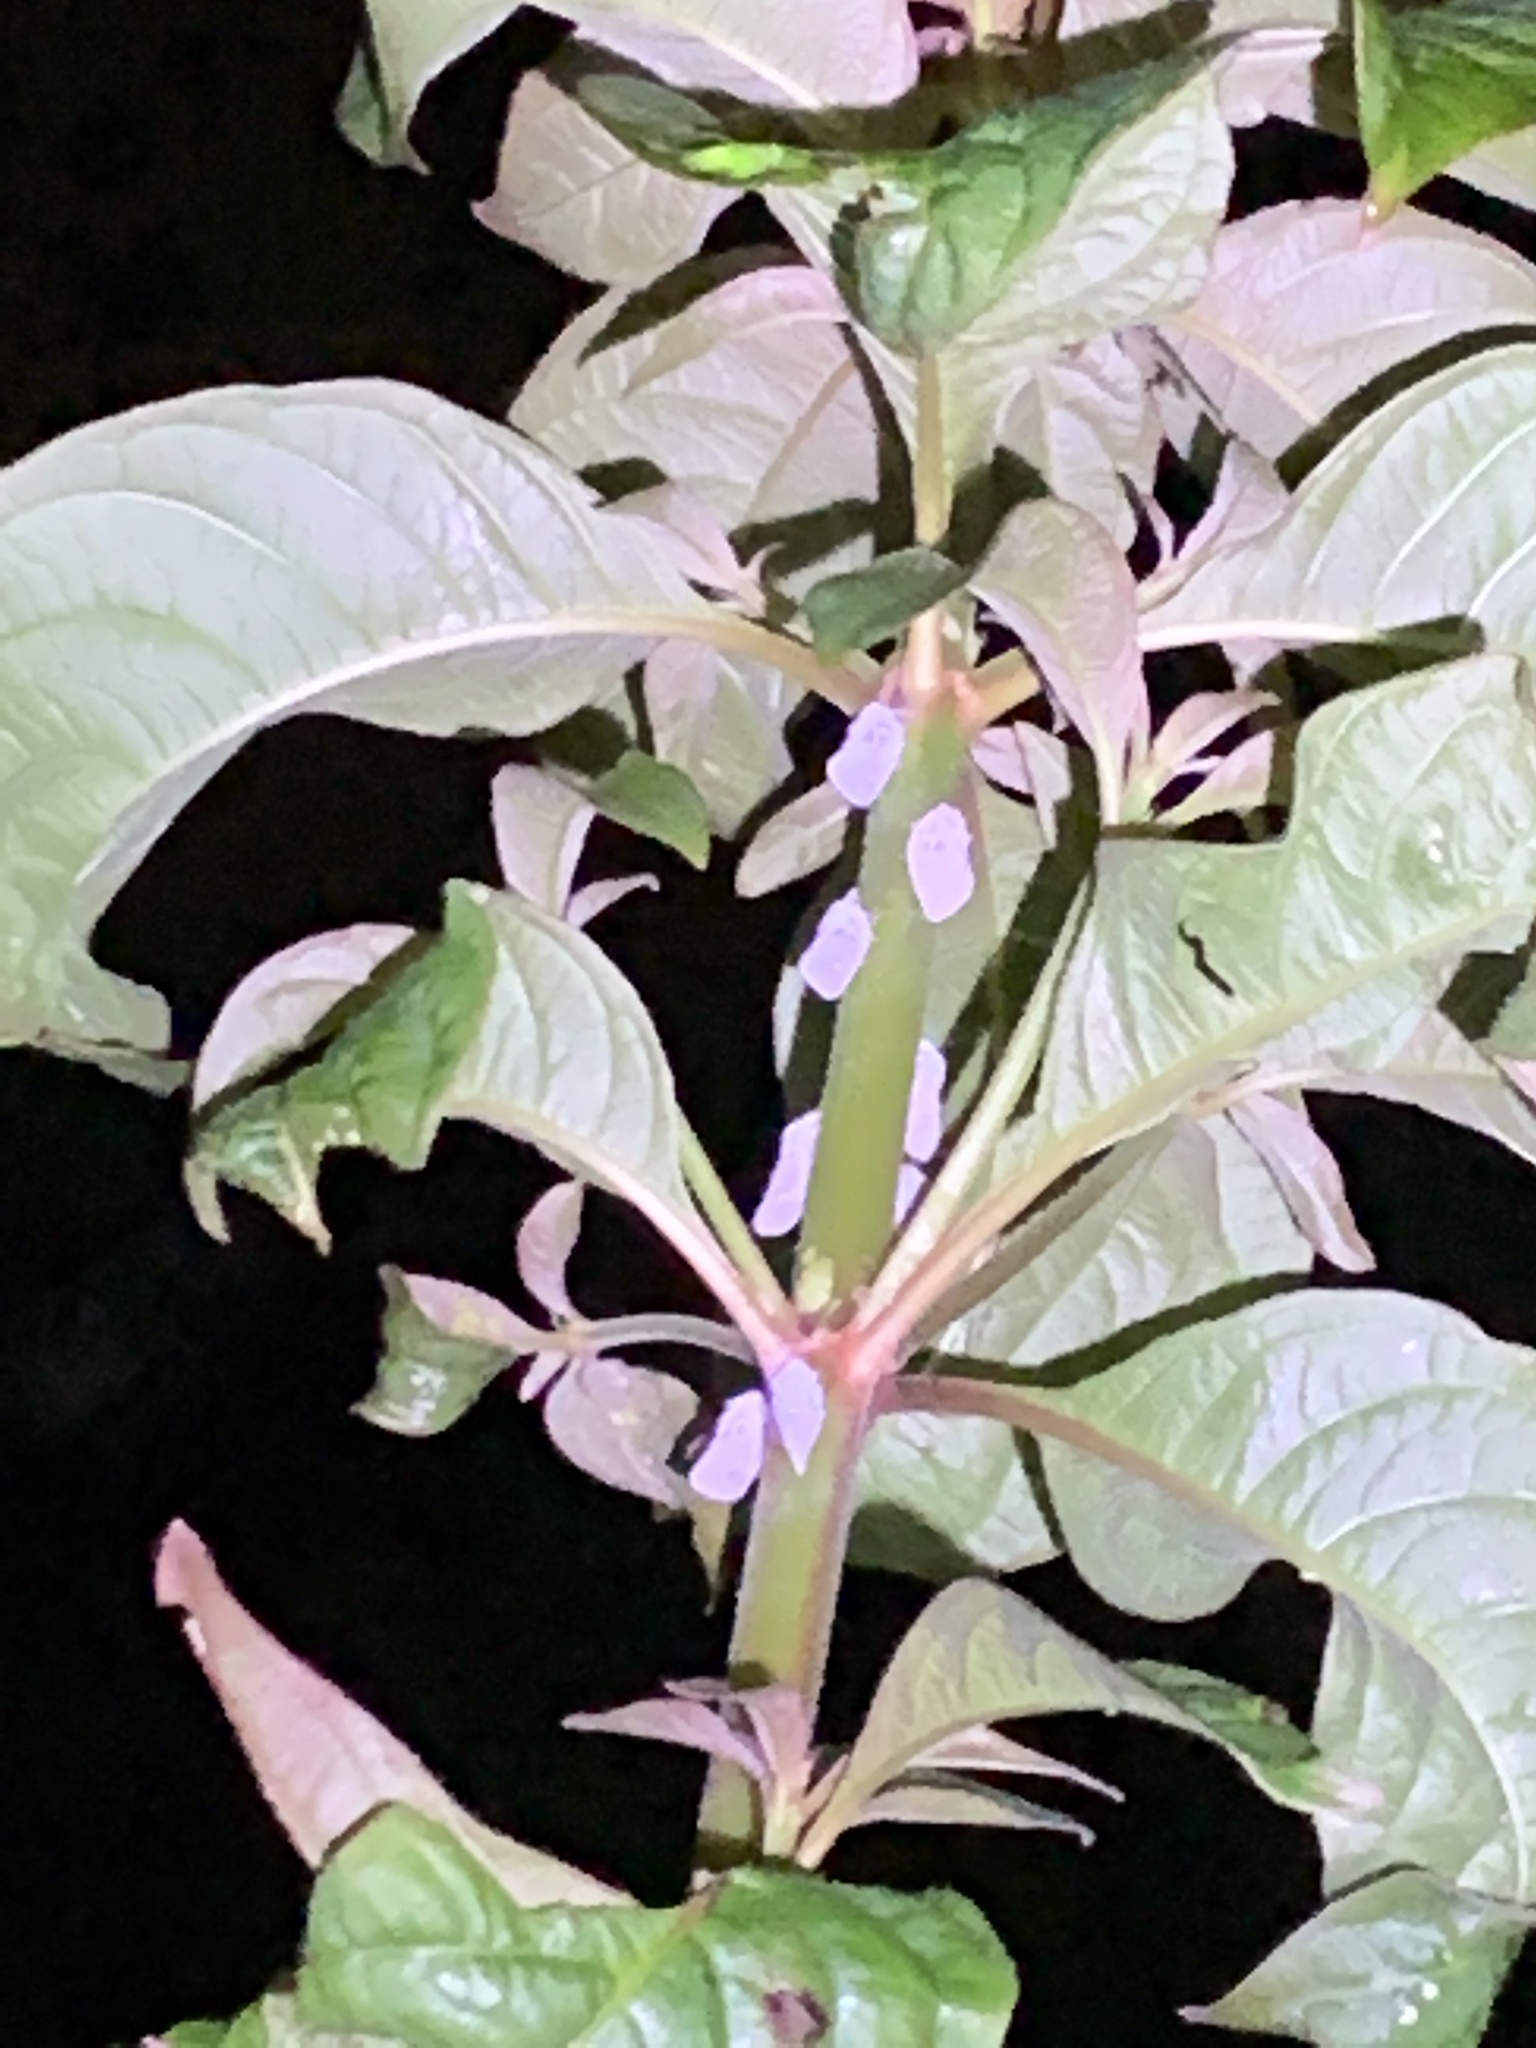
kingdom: Animalia
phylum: Arthropoda
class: Insecta
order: Hemiptera
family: Flatidae
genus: Metcalfa
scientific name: Metcalfa pruinosa
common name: Citrus flatid planthopper
